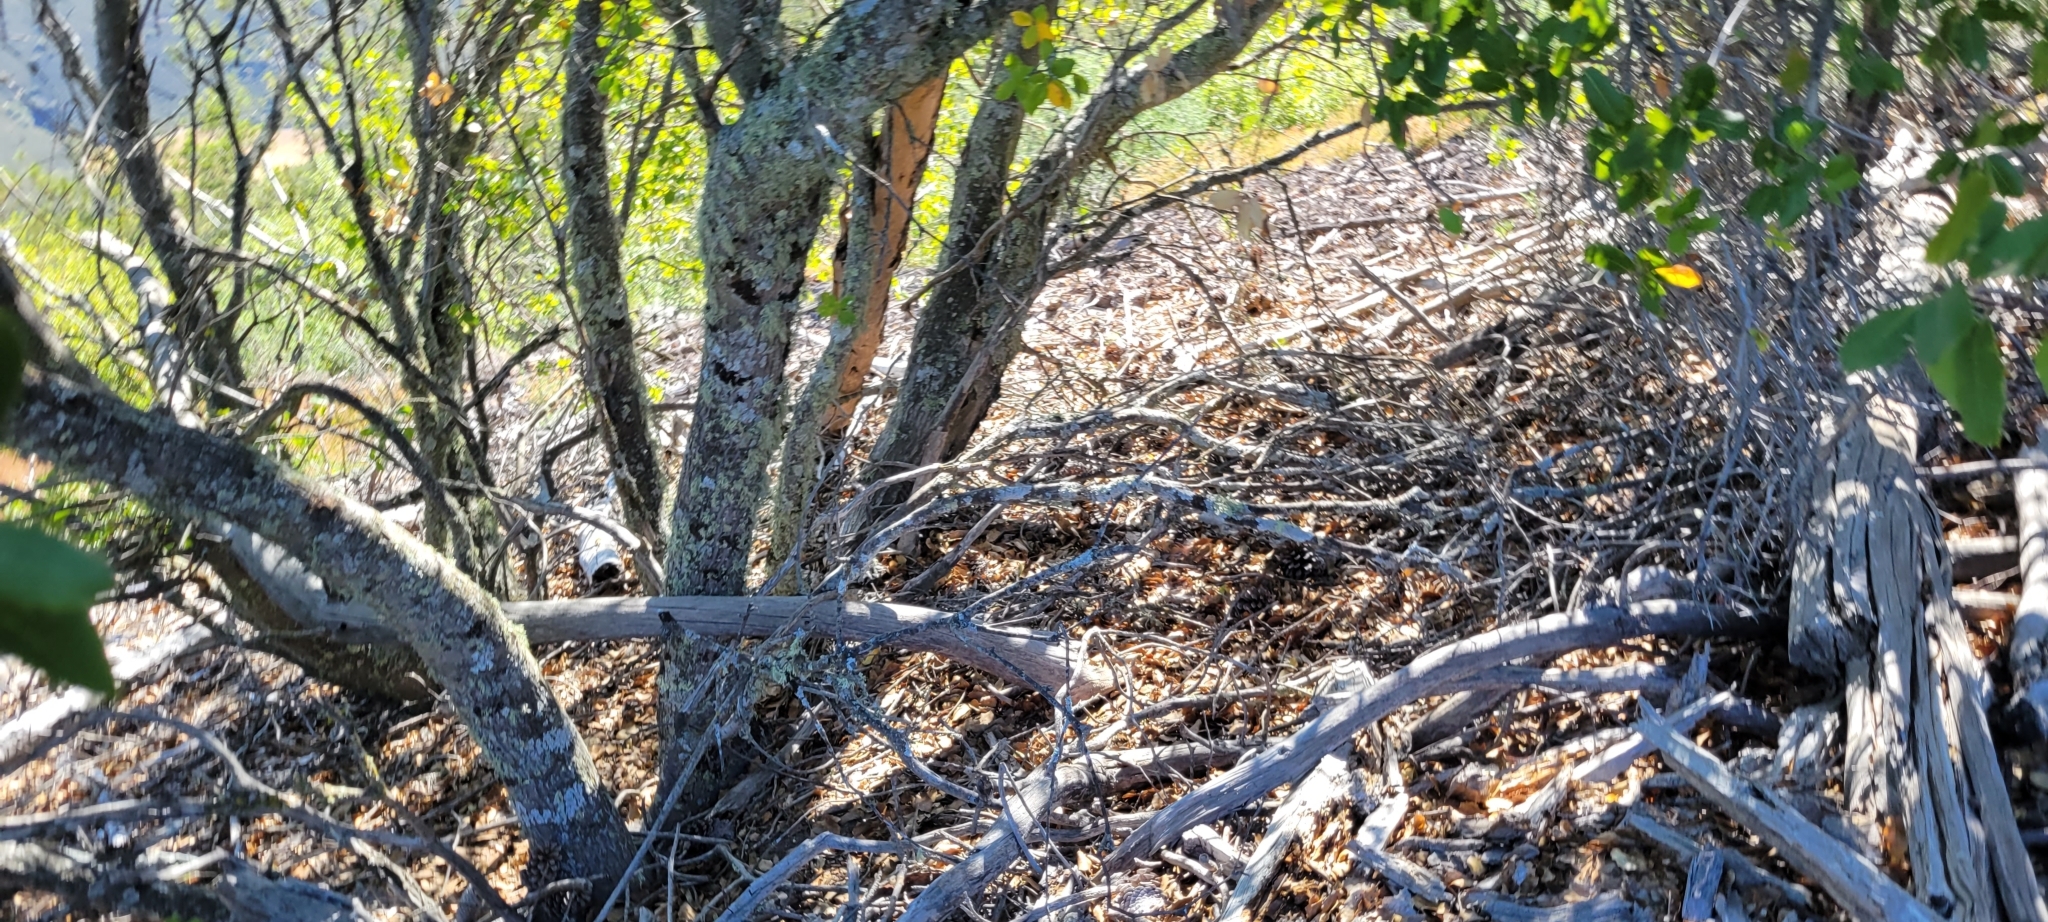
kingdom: Plantae
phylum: Tracheophyta
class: Magnoliopsida
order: Fagales
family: Fagaceae
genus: Quercus
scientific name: Quercus wislizeni
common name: Interior live oak
